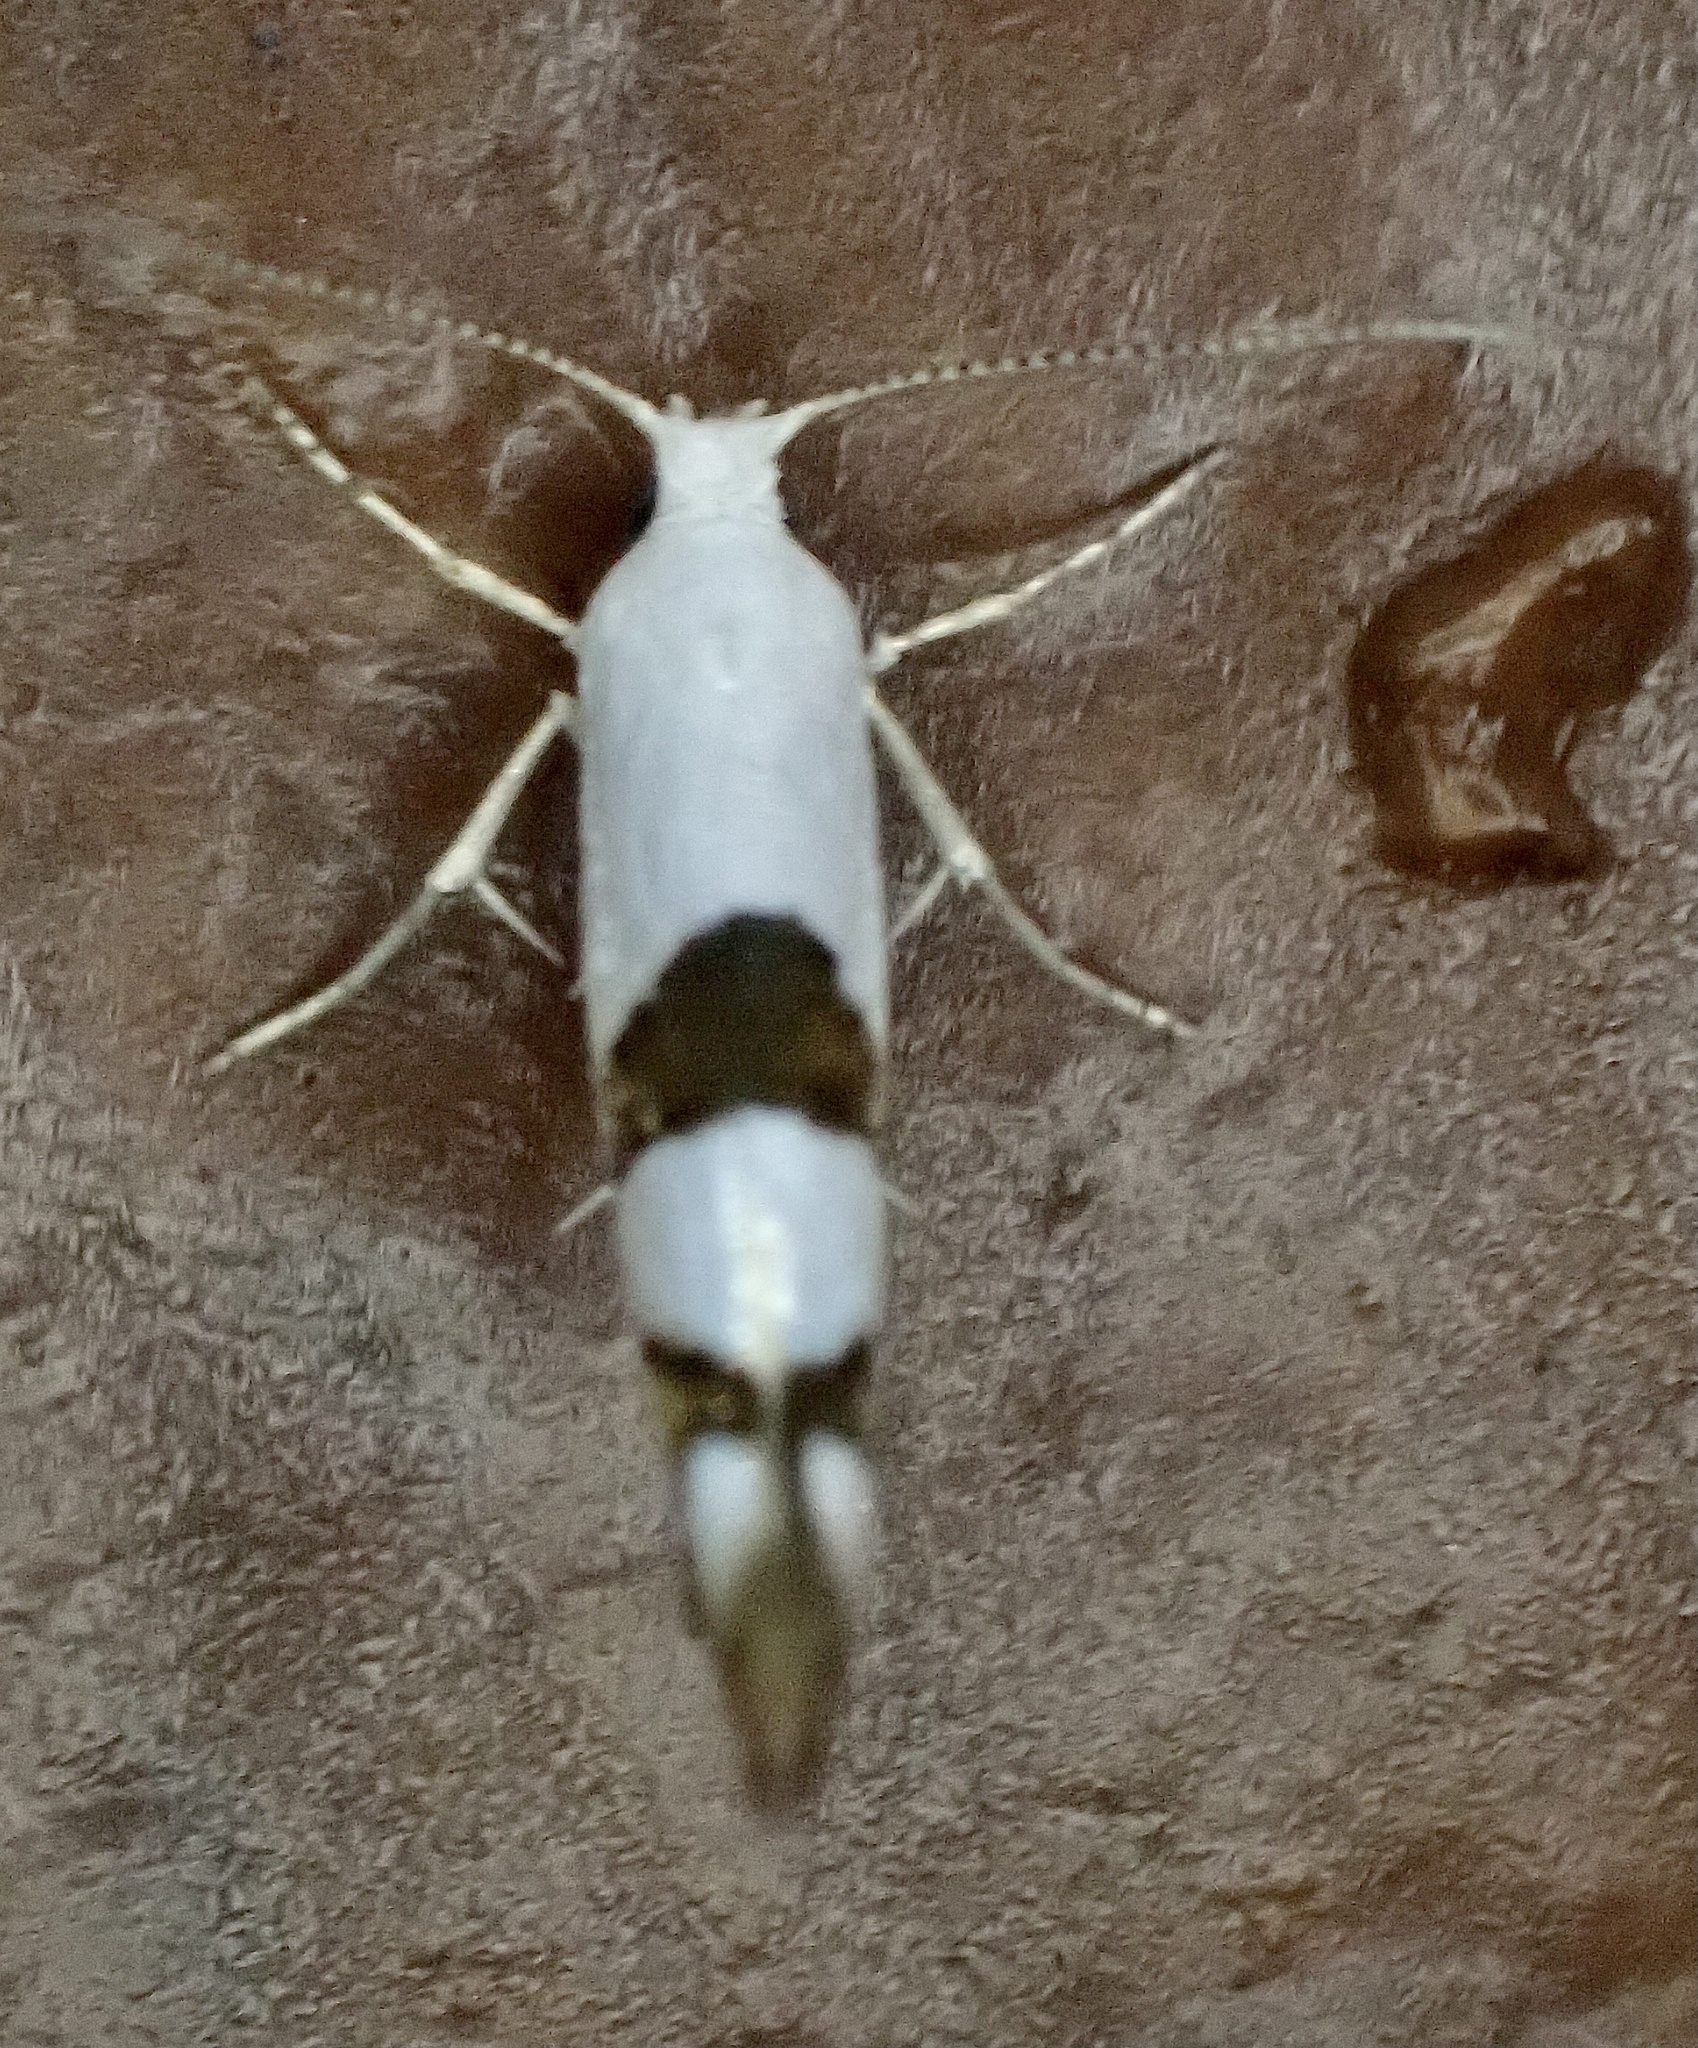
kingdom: Animalia
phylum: Arthropoda
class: Insecta
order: Lepidoptera
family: Argyresthiidae
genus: Argyresthia
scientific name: Argyresthia oreasella
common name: Cherry shoot borer moth
